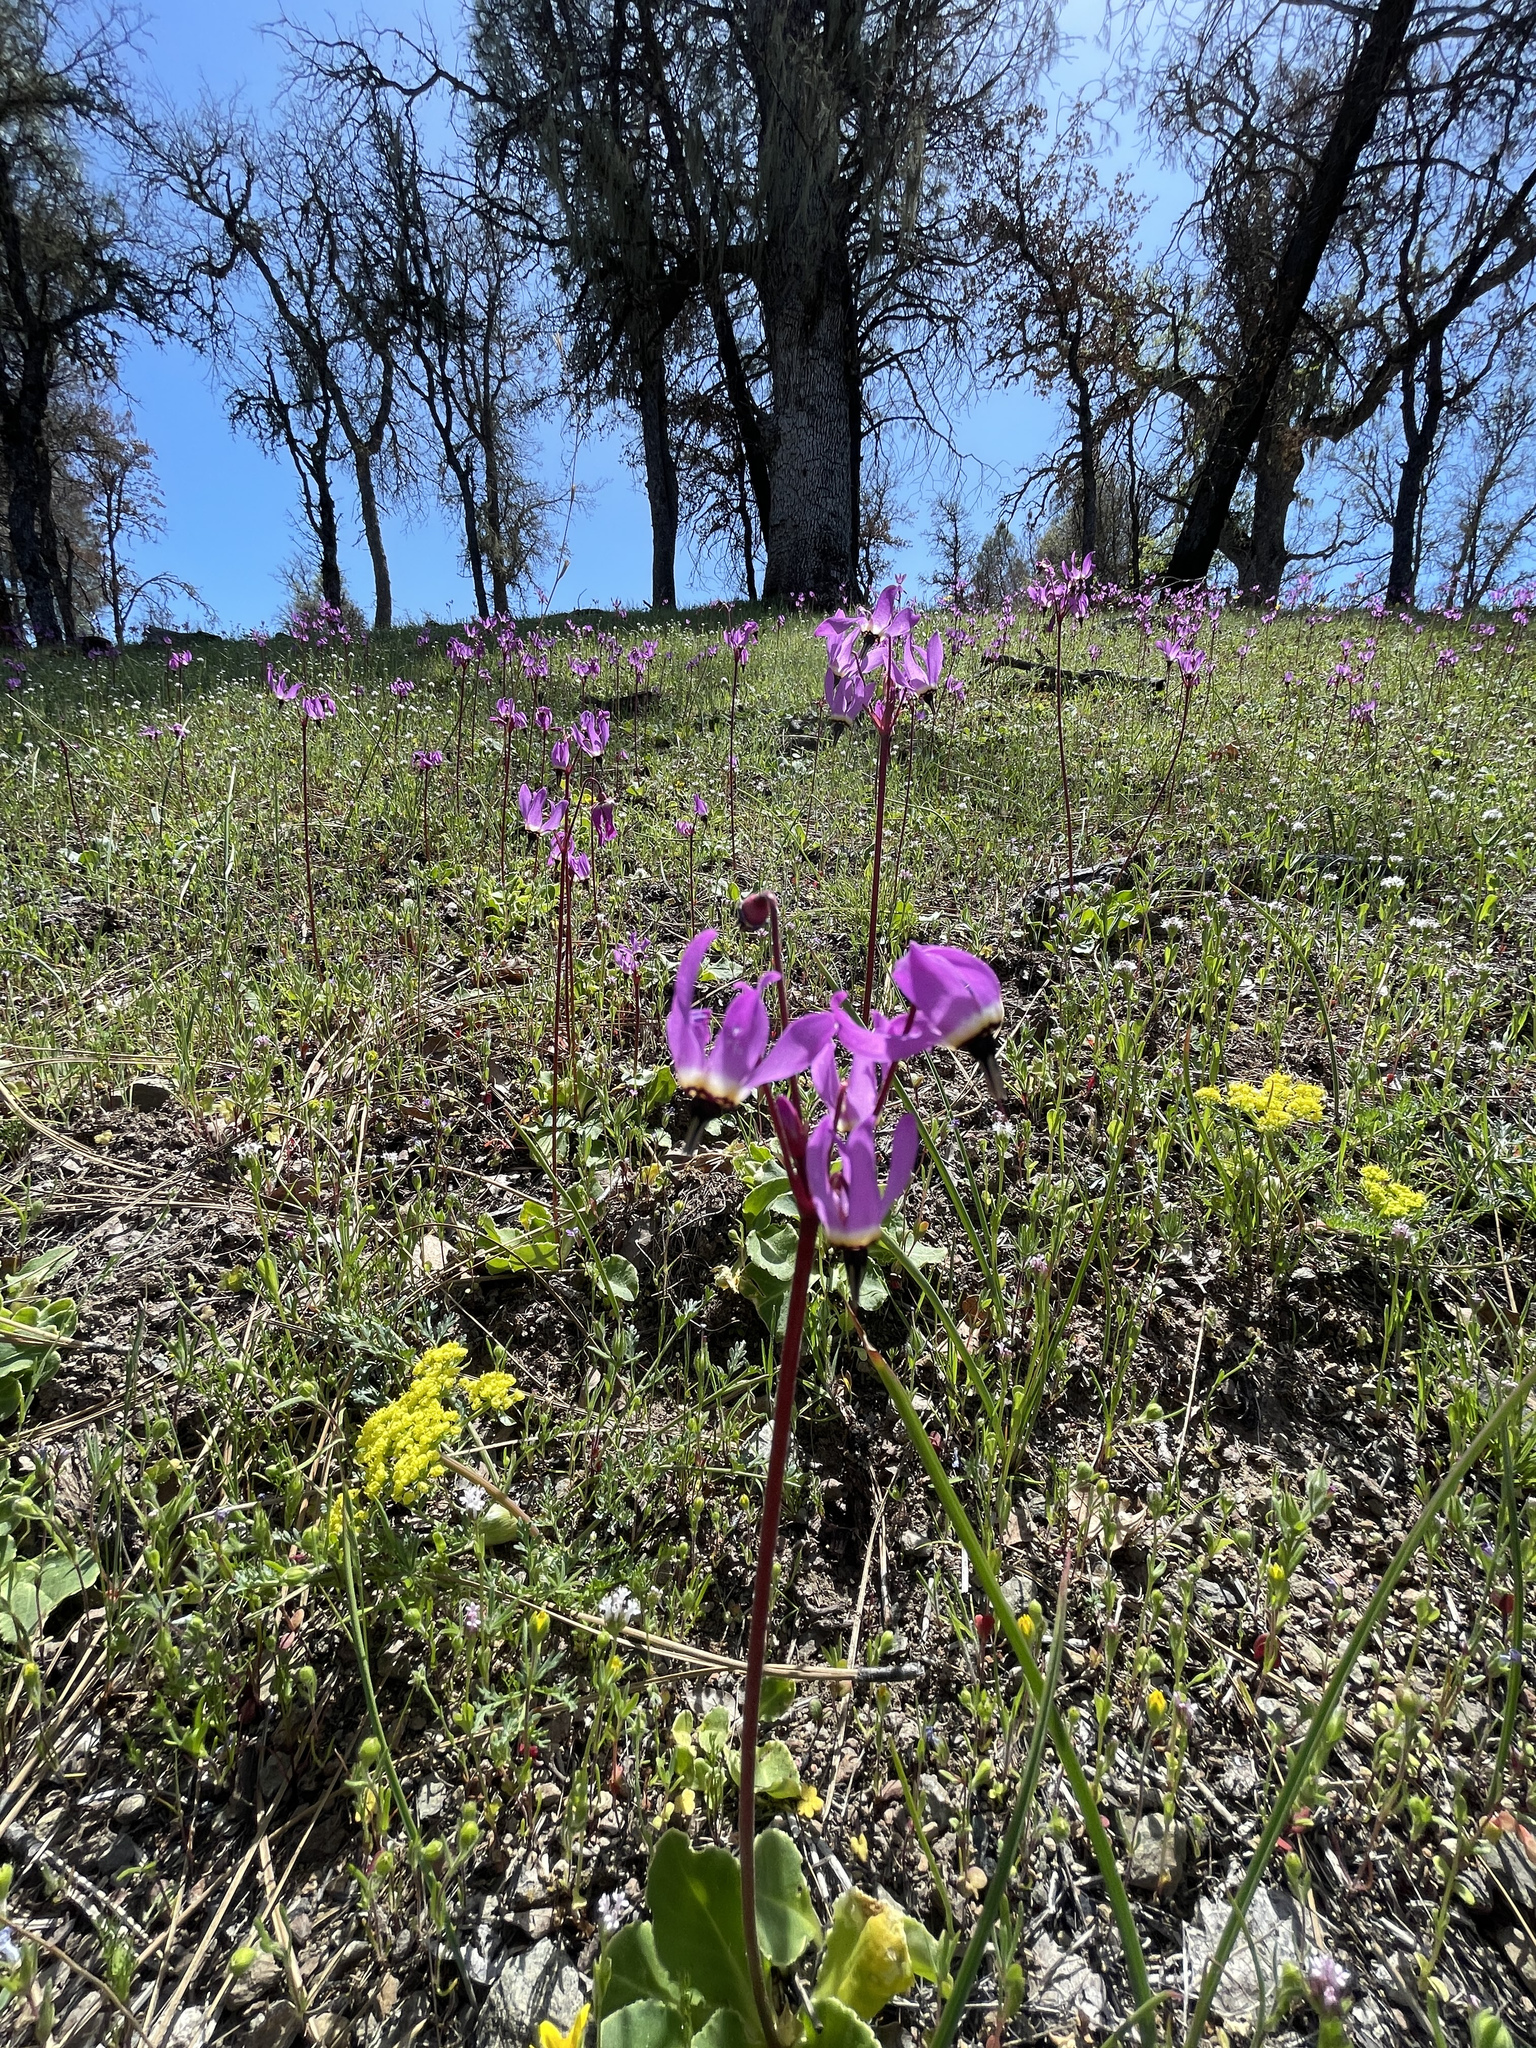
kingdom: Plantae
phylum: Tracheophyta
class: Magnoliopsida
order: Ericales
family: Primulaceae
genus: Dodecatheon
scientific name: Dodecatheon hendersonii
